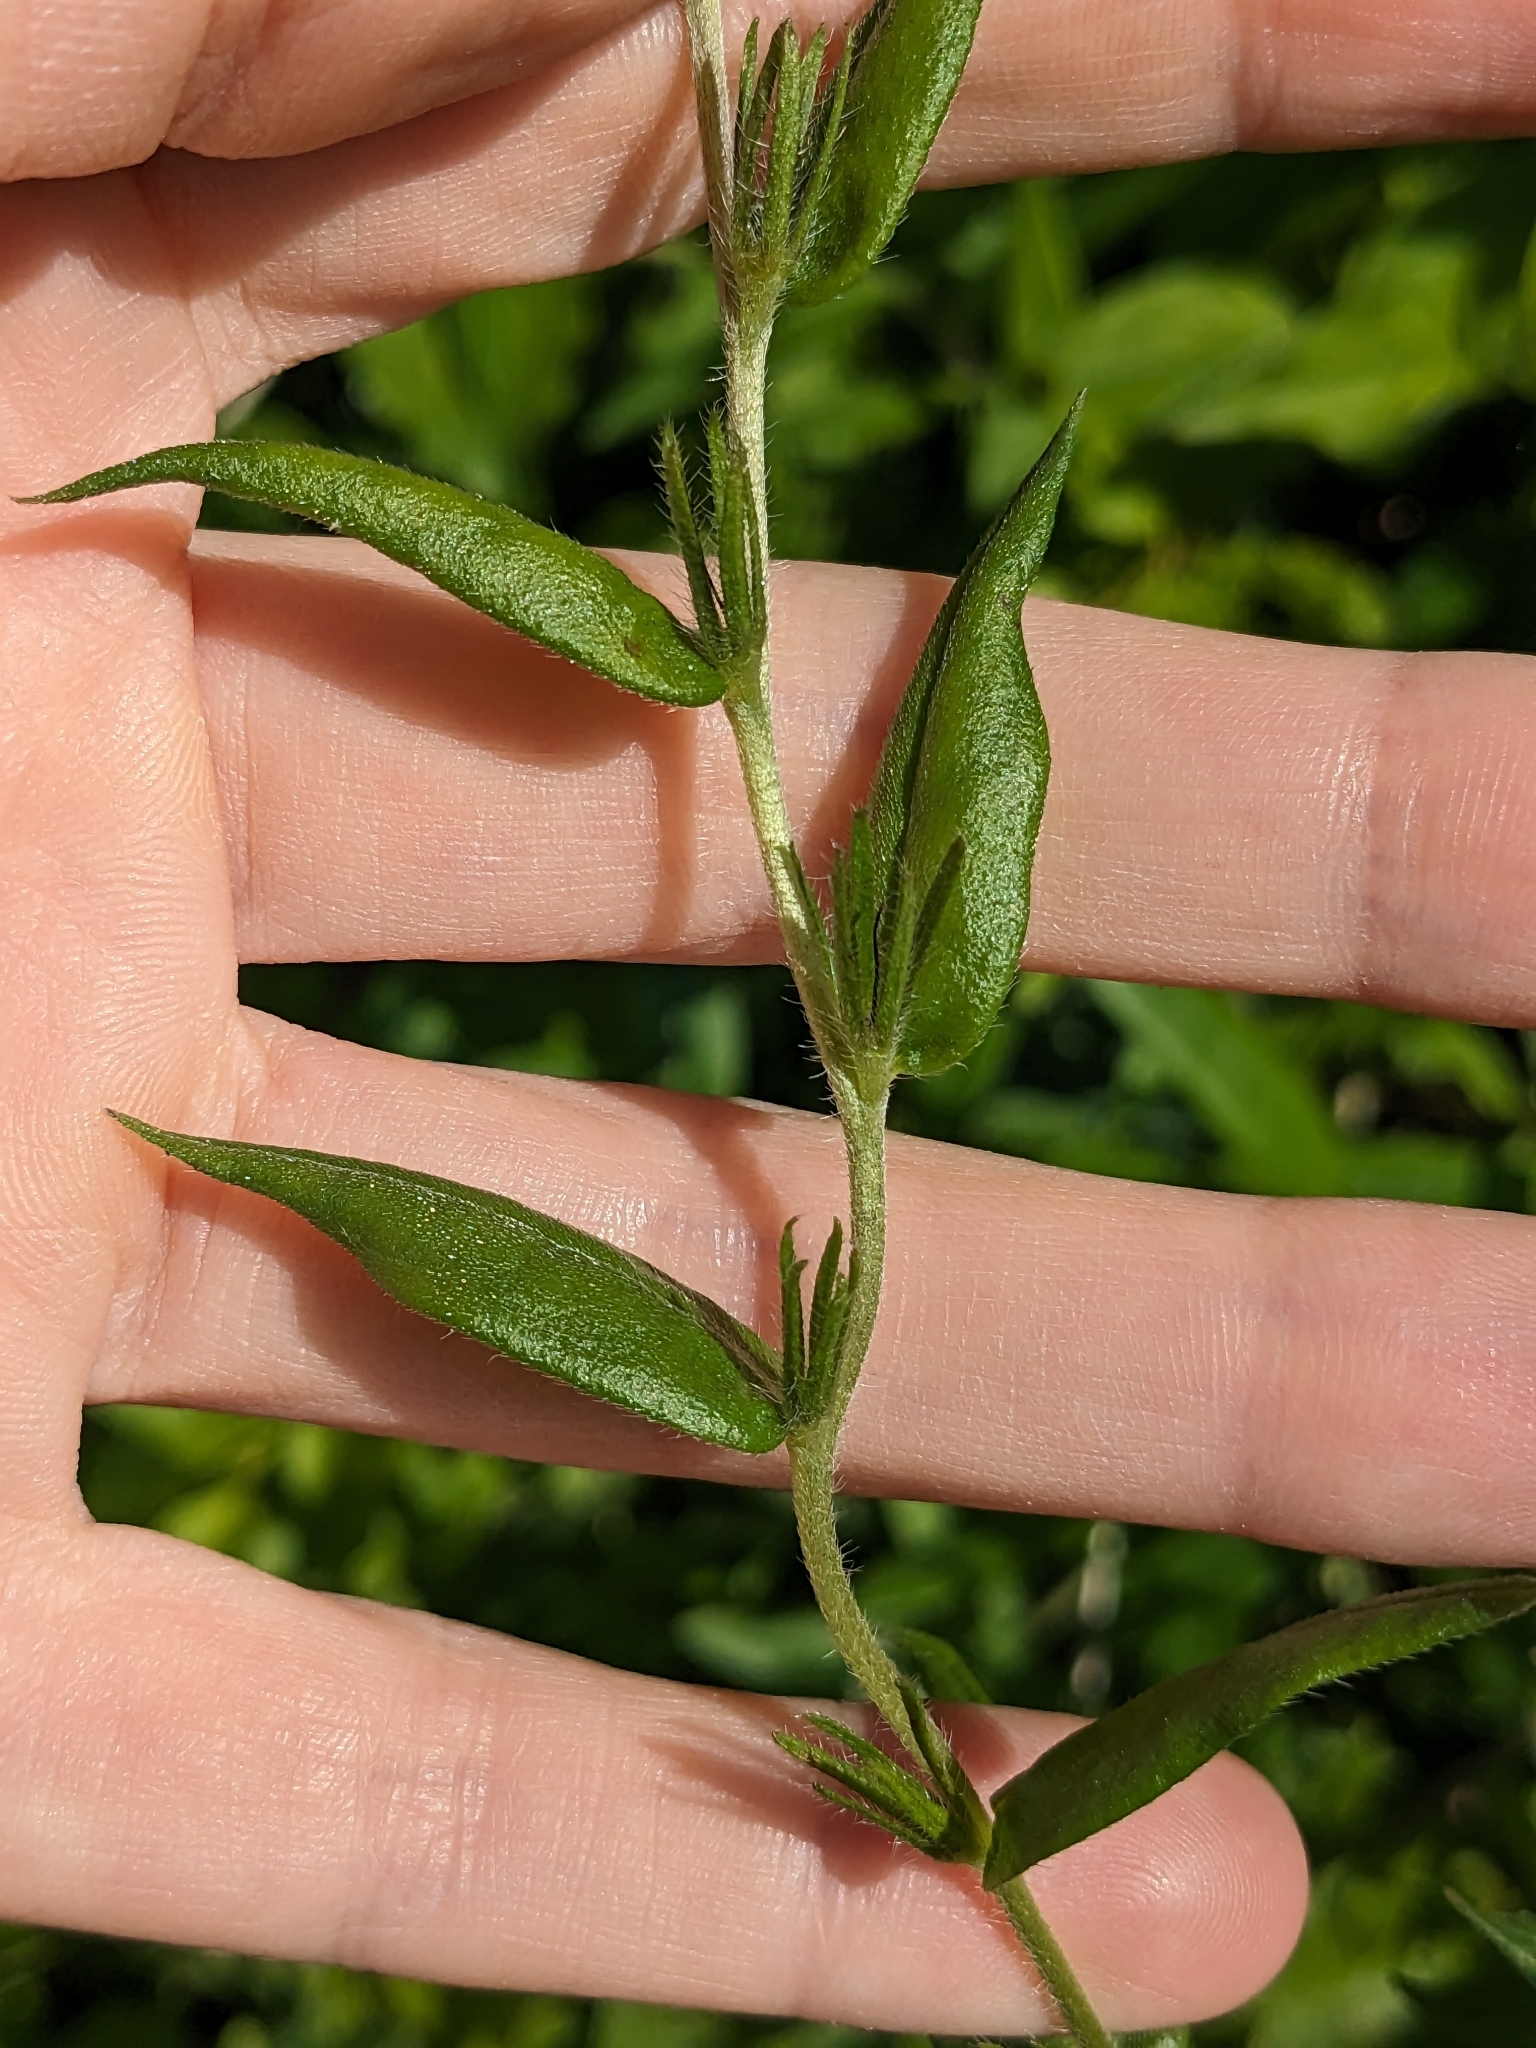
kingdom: Plantae
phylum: Tracheophyta
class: Magnoliopsida
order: Boraginales
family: Boraginaceae
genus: Aegonychon
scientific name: Aegonychon purpurocaeruleum
